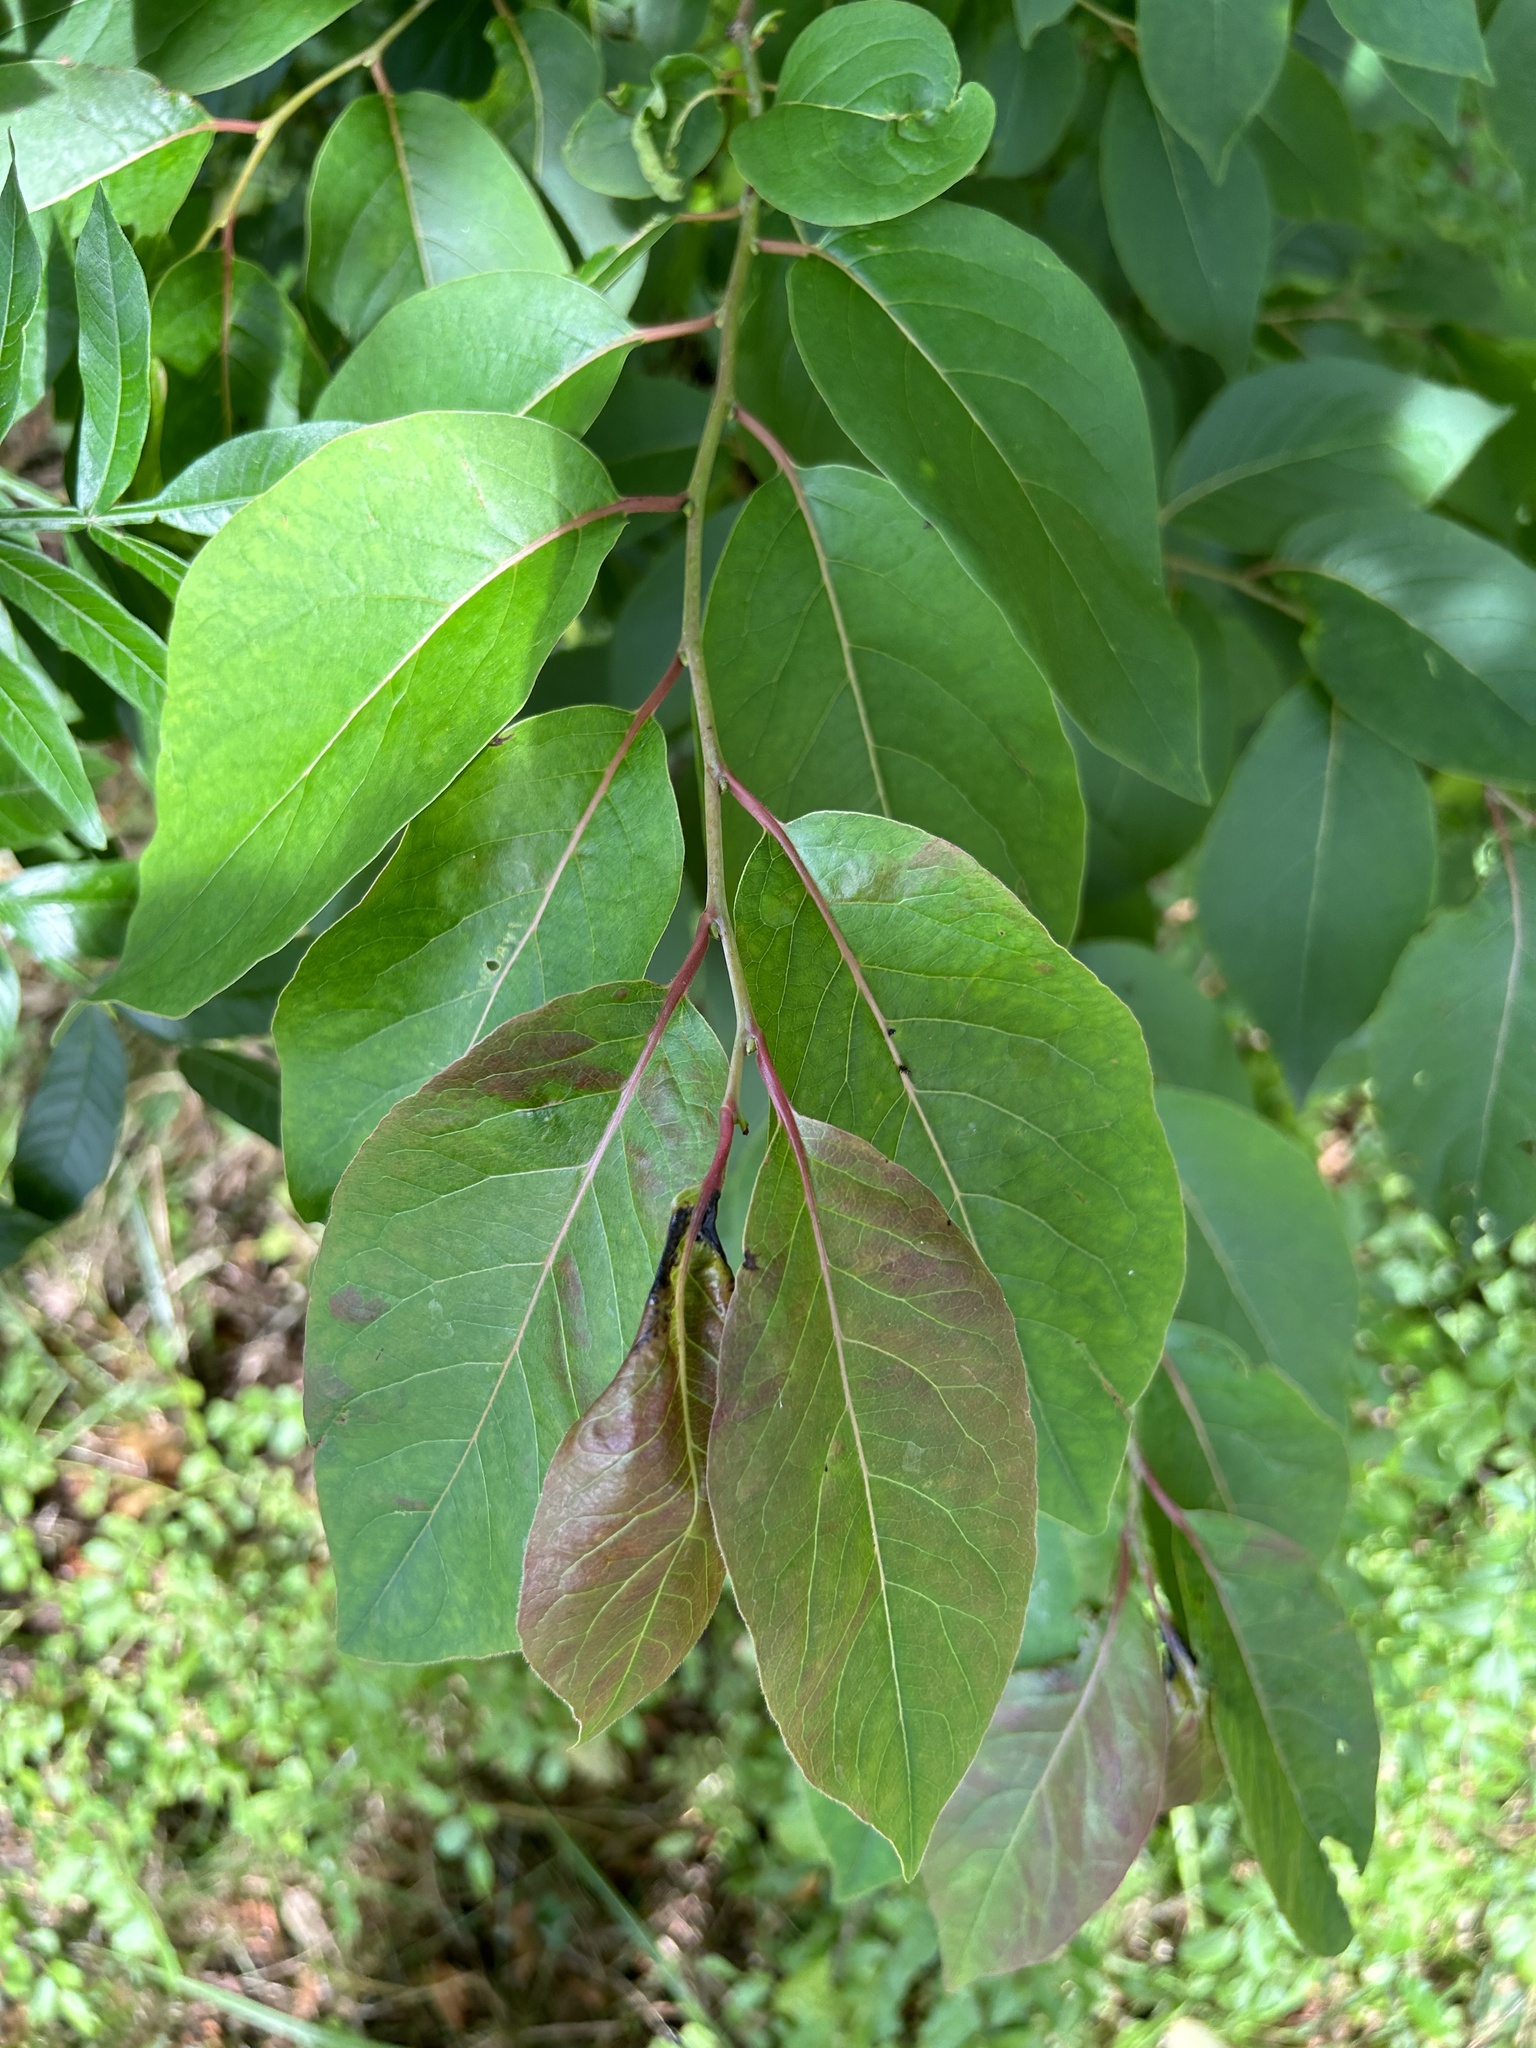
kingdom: Plantae
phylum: Tracheophyta
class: Magnoliopsida
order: Ericales
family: Ebenaceae
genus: Diospyros
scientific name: Diospyros virginiana
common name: Persimmon
